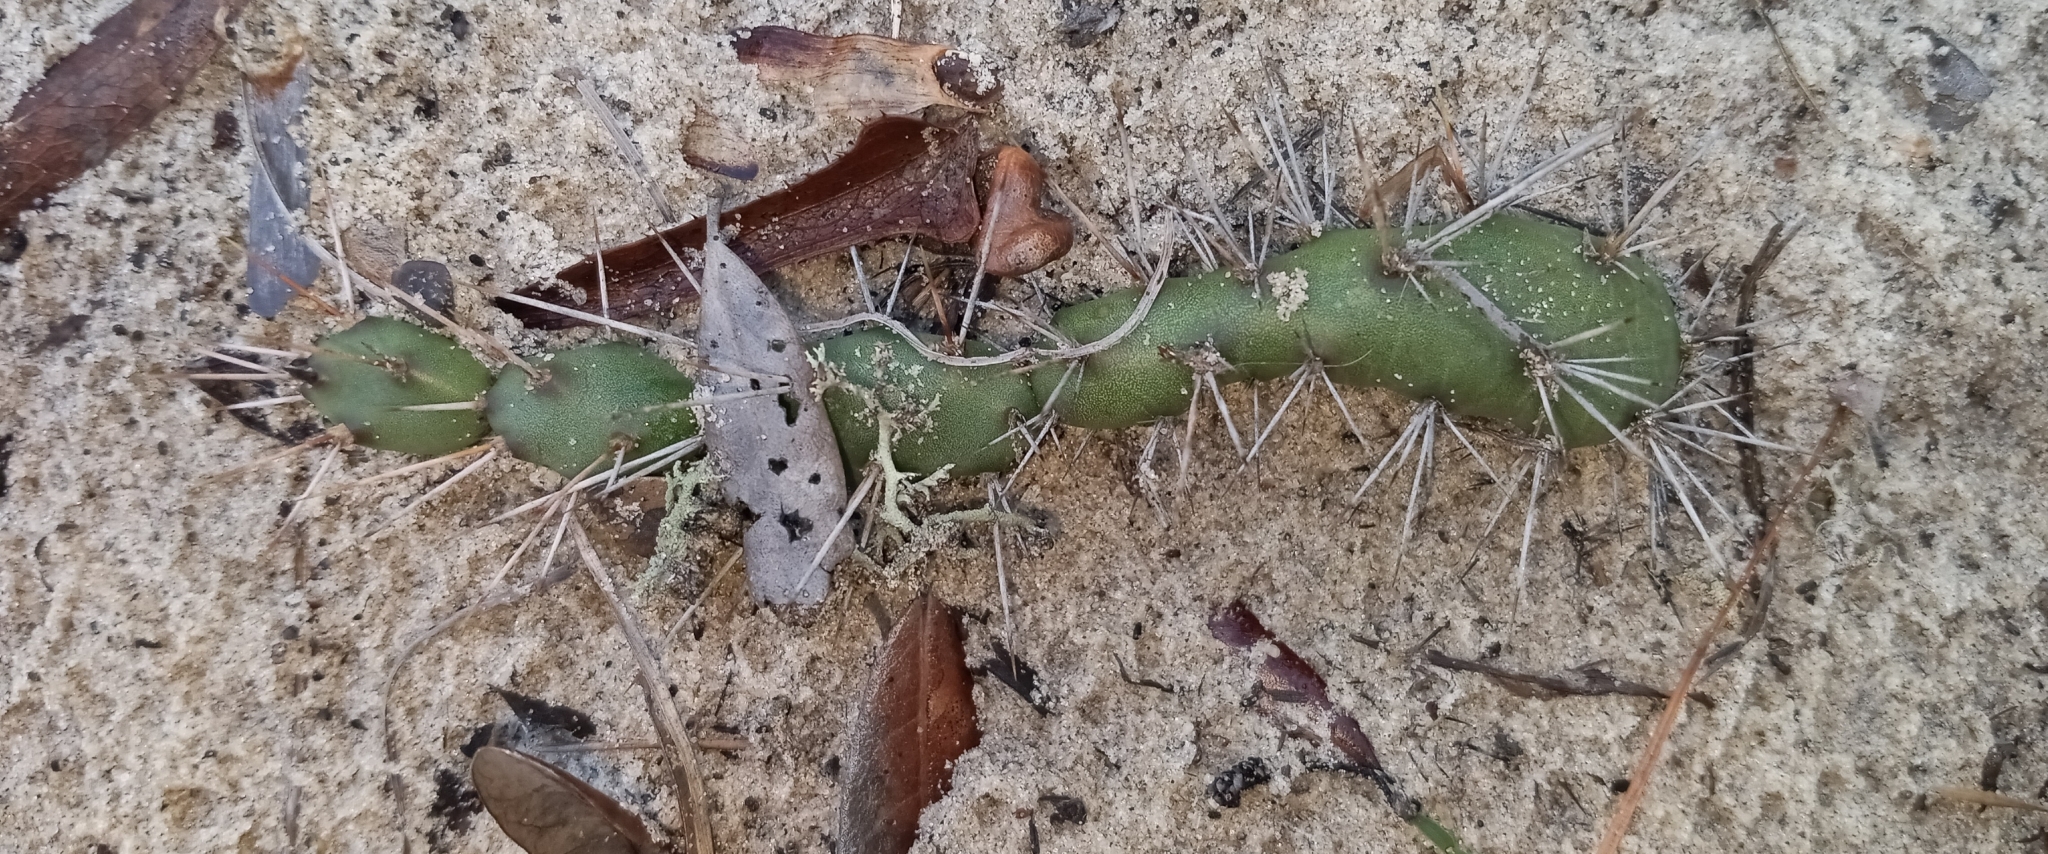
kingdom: Plantae
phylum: Tracheophyta
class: Magnoliopsida
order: Caryophyllales
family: Cactaceae
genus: Opuntia
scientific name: Opuntia drummondii
